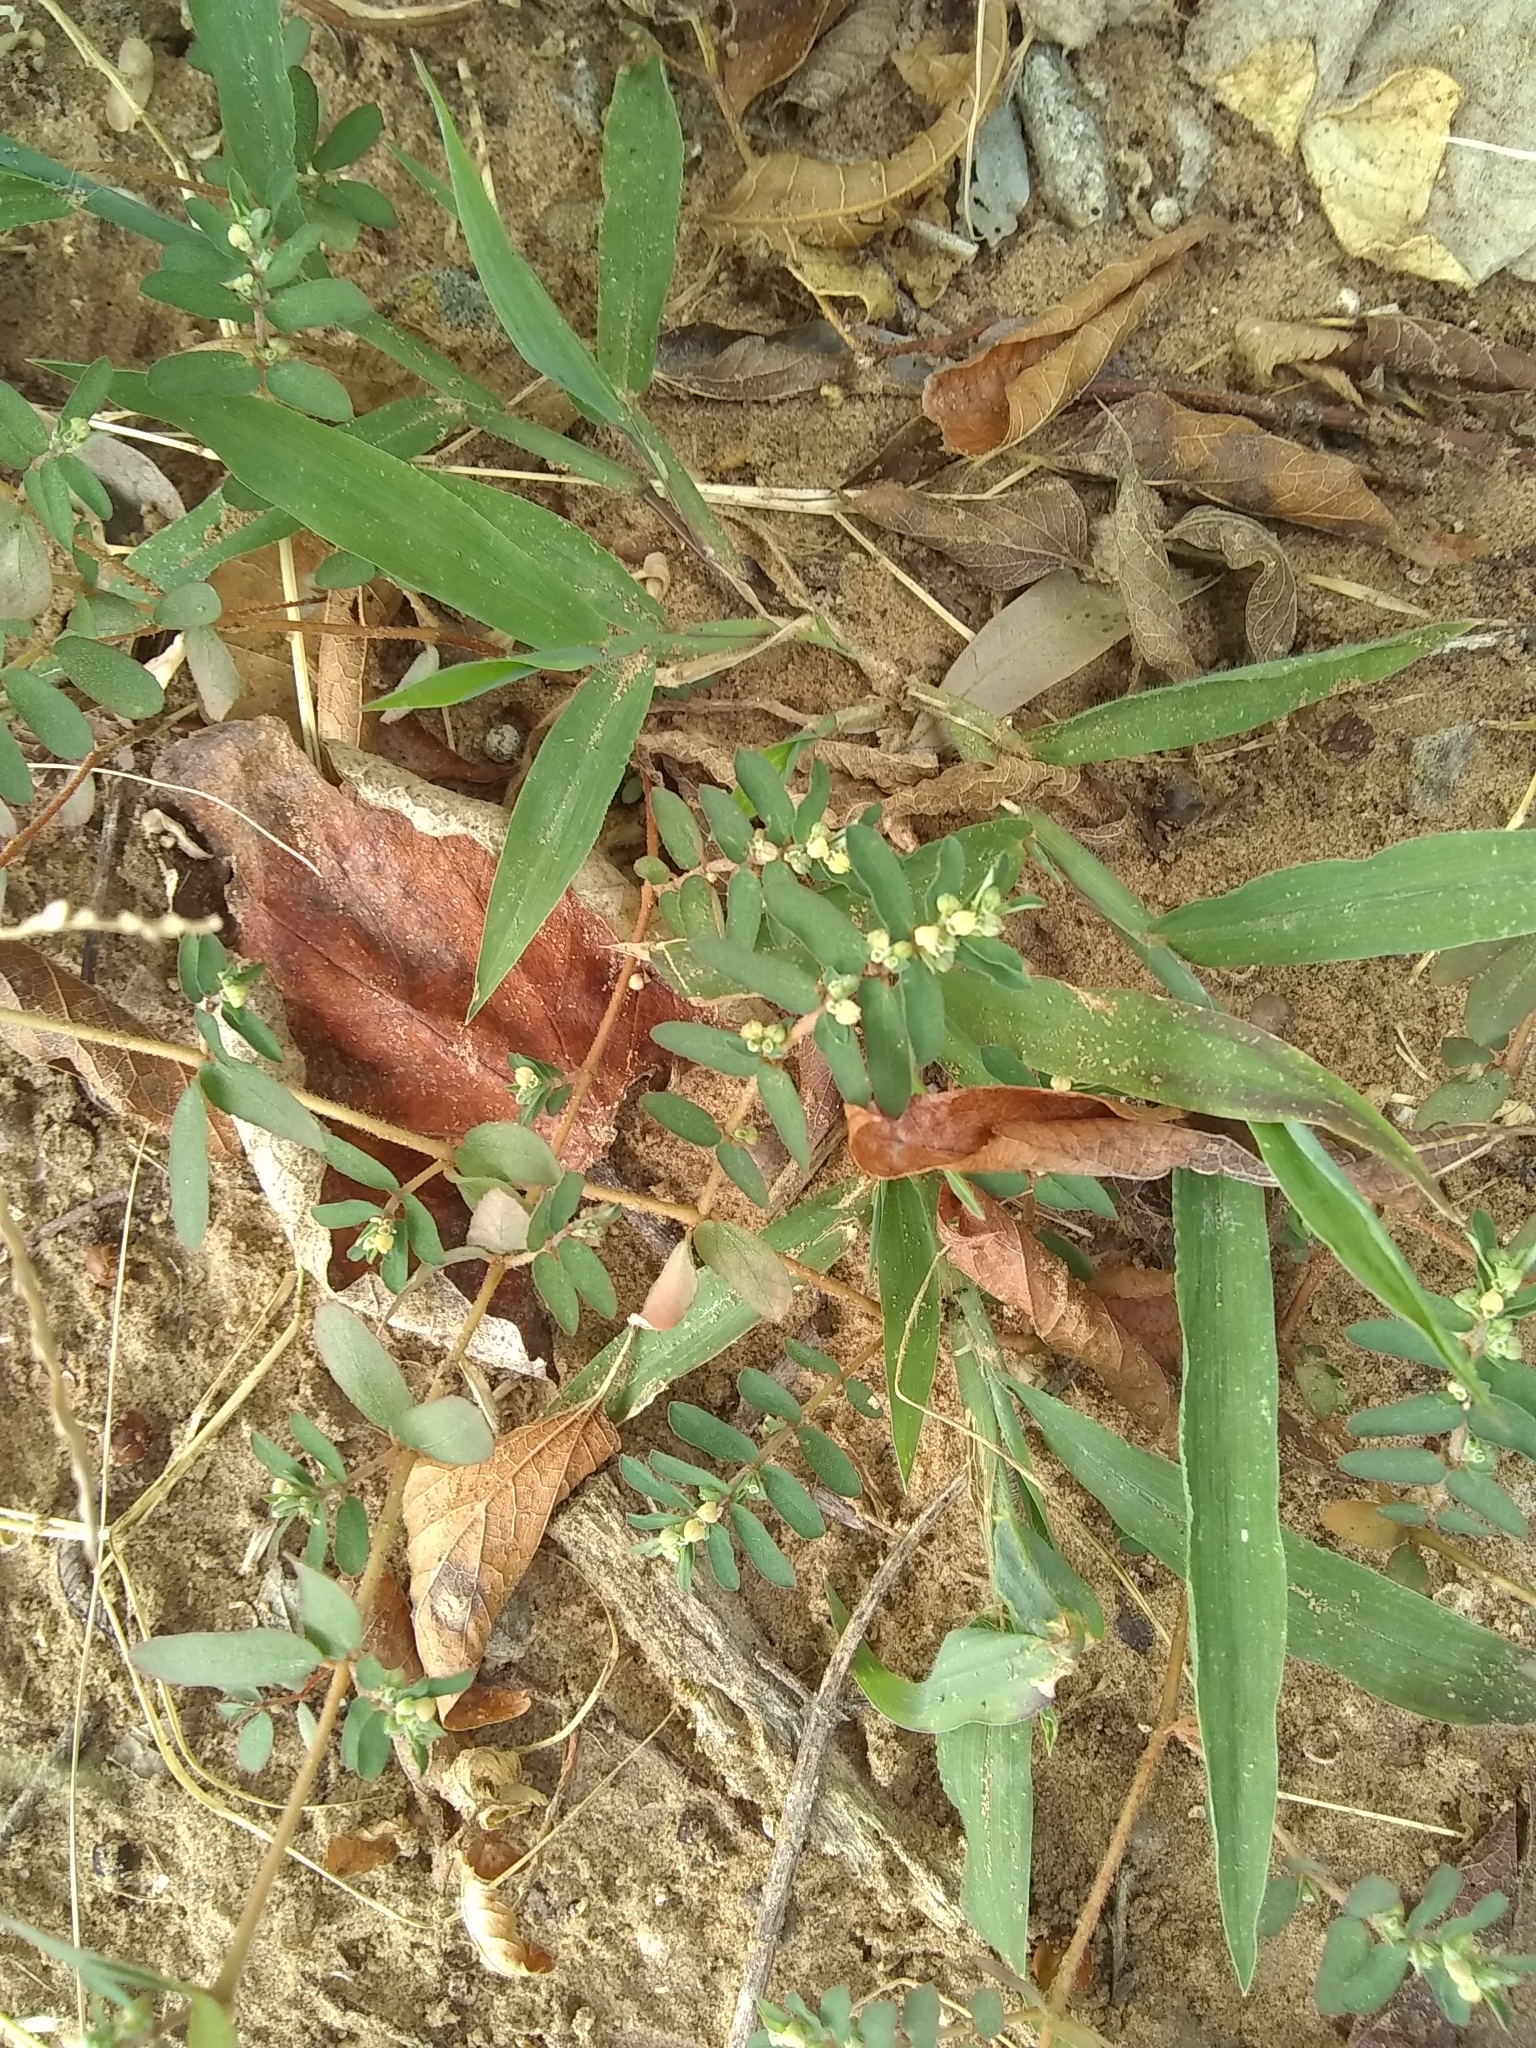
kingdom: Plantae
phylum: Tracheophyta
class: Magnoliopsida
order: Malpighiales
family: Euphorbiaceae
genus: Euphorbia
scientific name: Euphorbia maculata
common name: Spotted spurge
